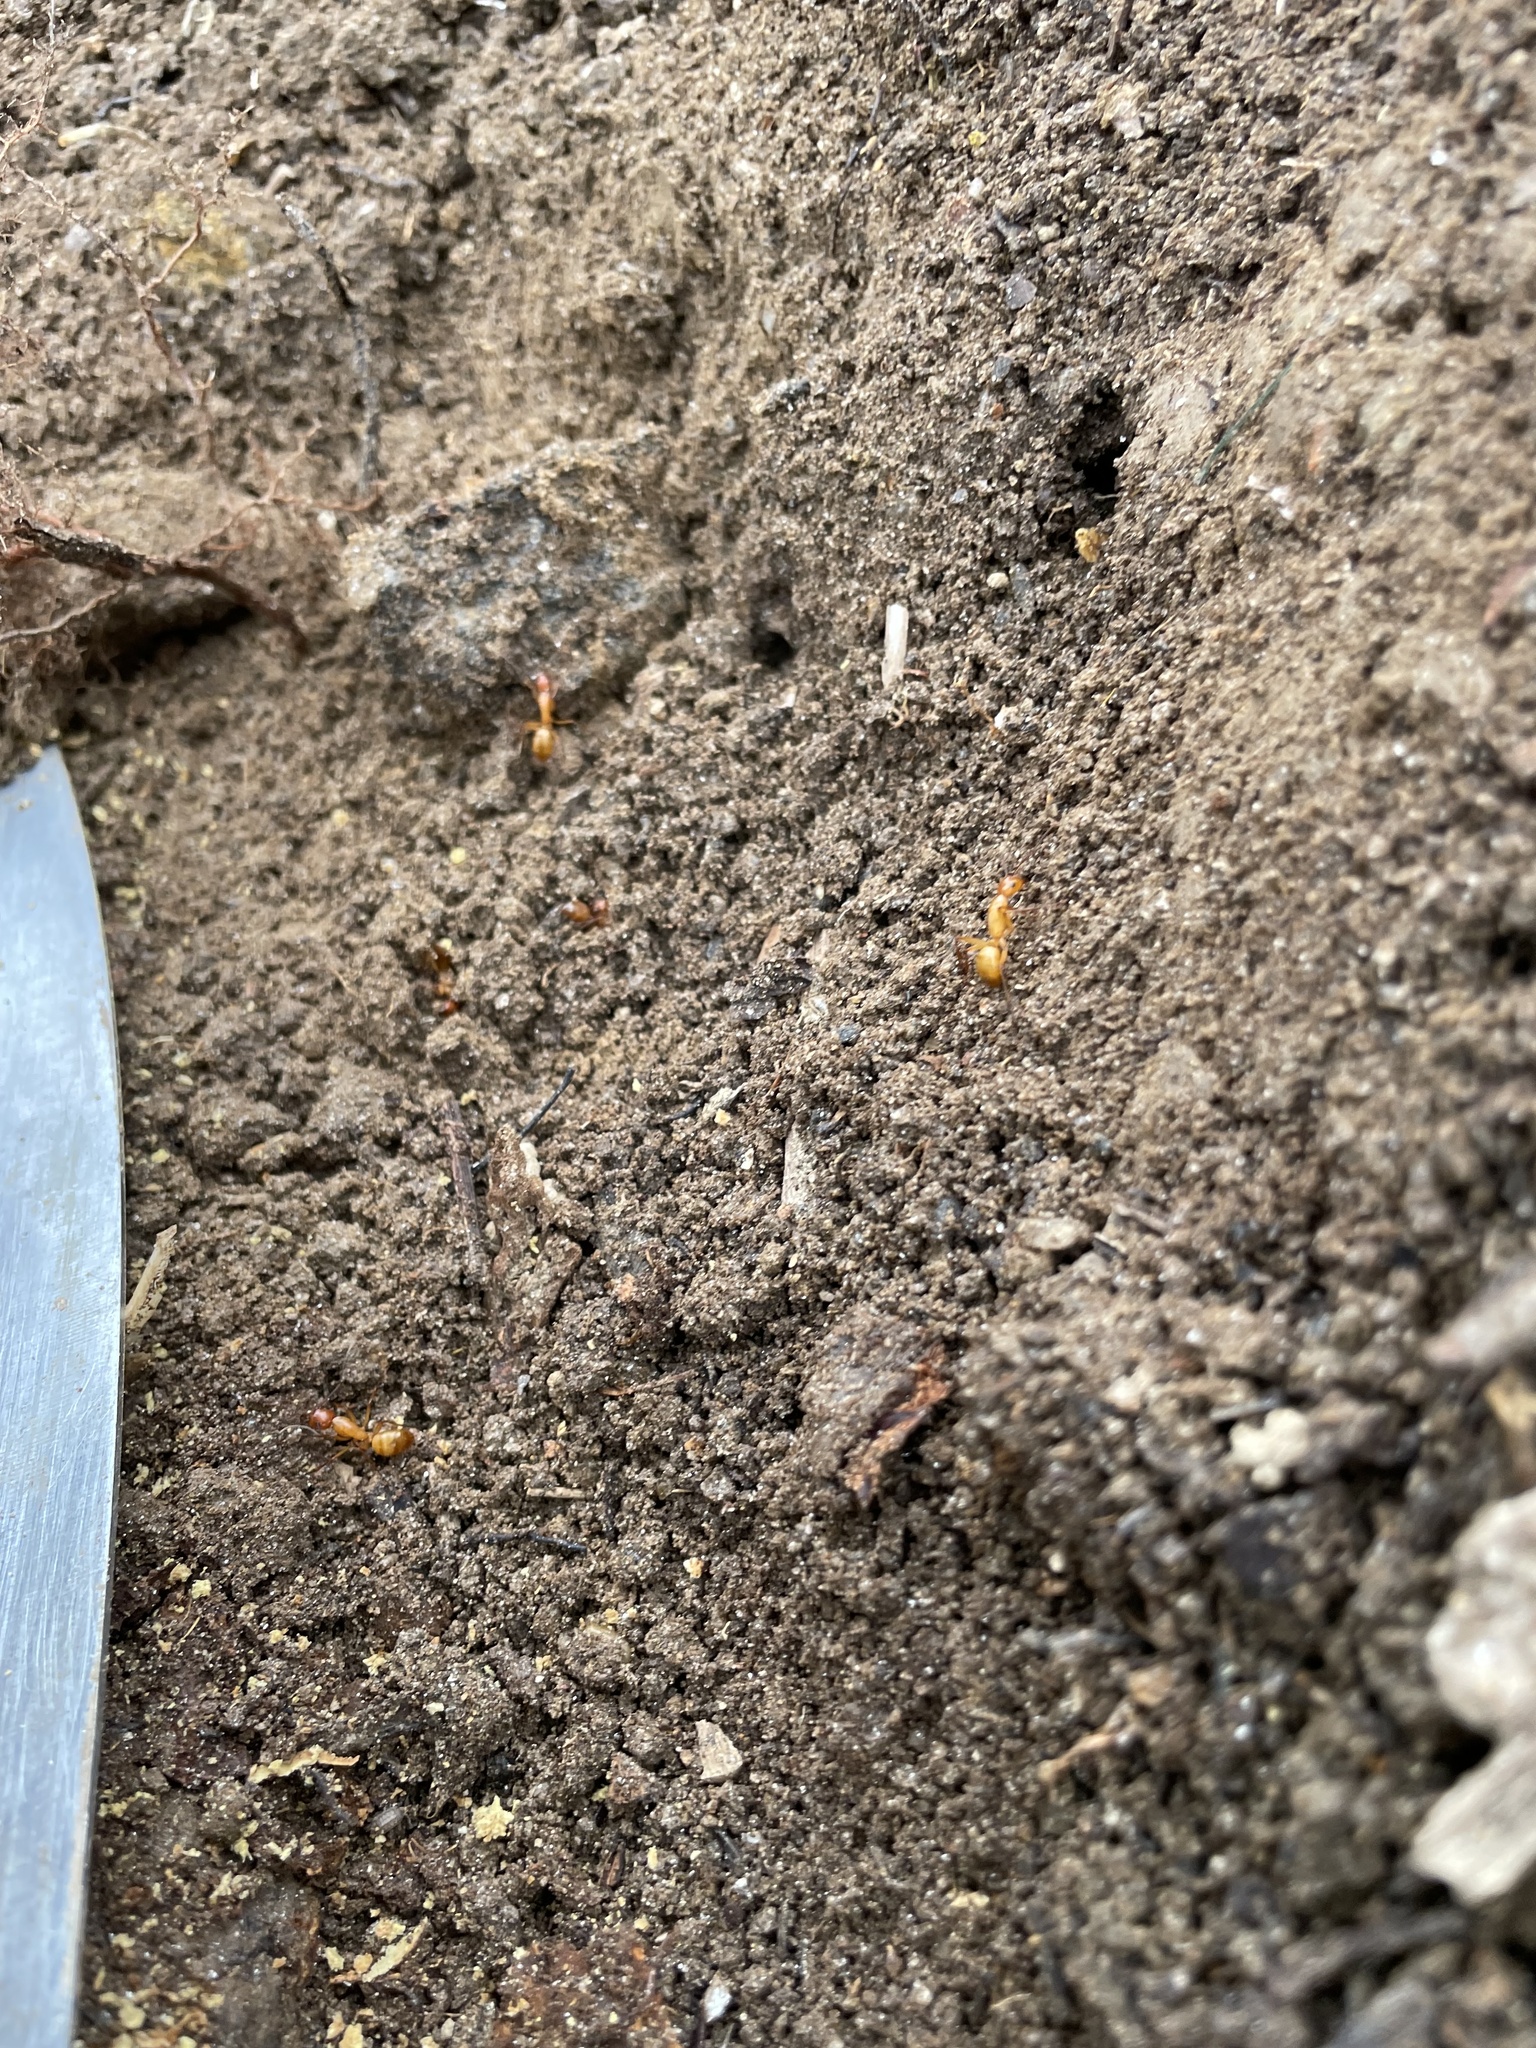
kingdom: Animalia
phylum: Arthropoda
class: Insecta
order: Hymenoptera
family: Formicidae
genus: Camponotus
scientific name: Camponotus castaneus
